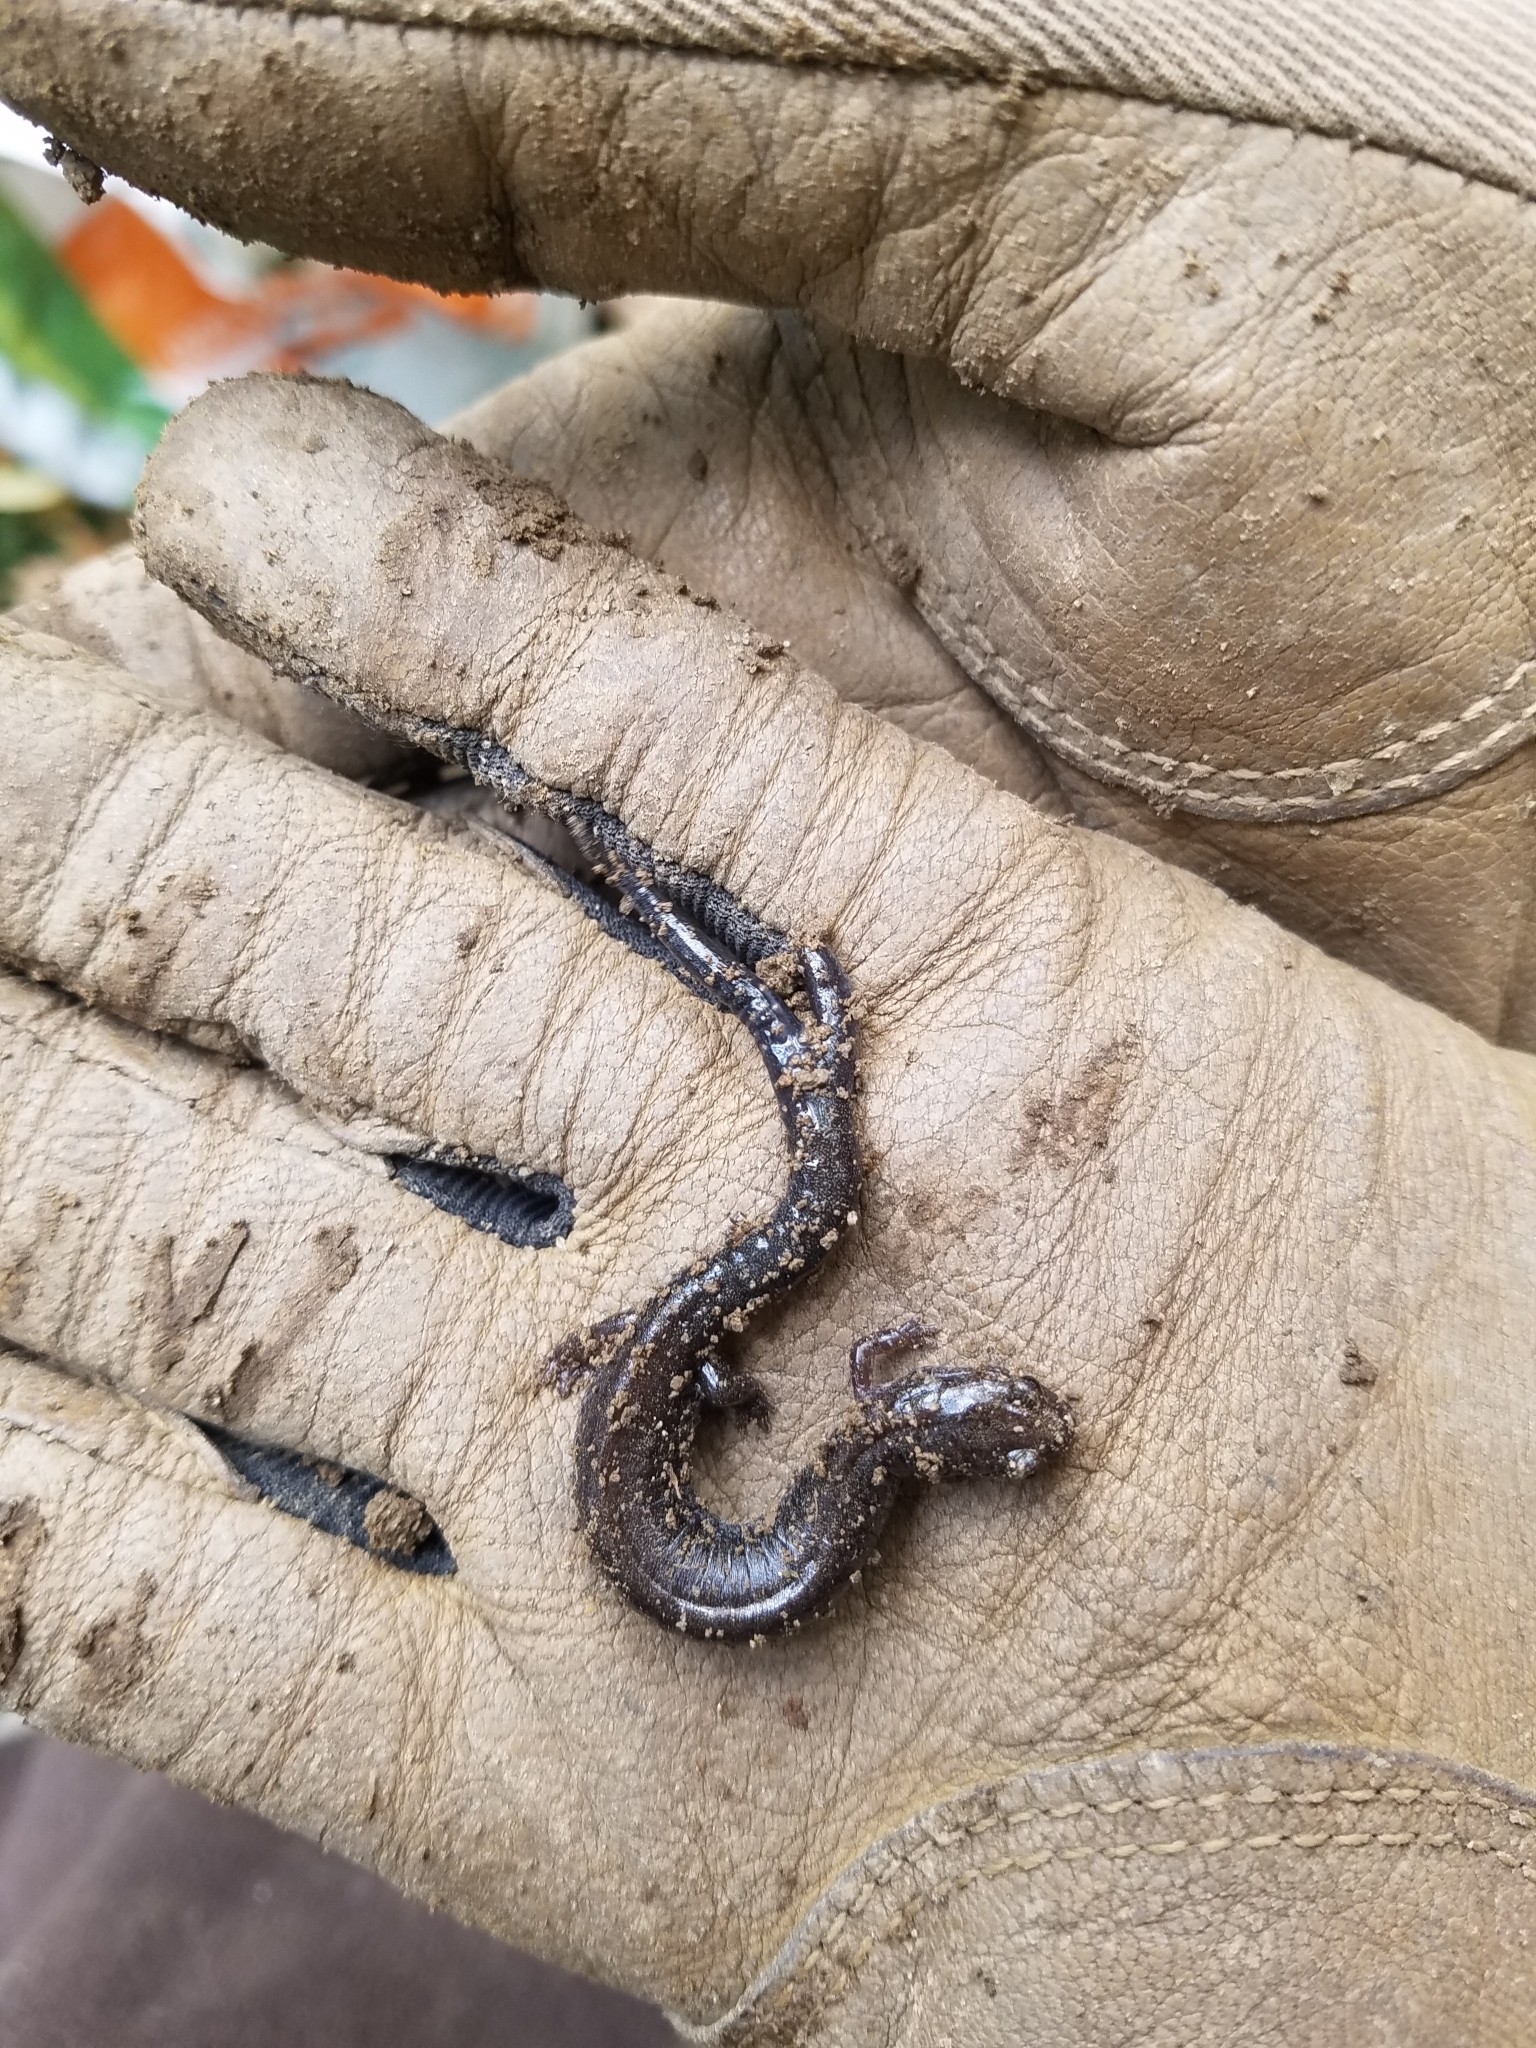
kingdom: Animalia
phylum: Chordata
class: Amphibia
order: Caudata
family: Plethodontidae
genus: Plethodon
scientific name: Plethodon cinereus
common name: Redback salamander
